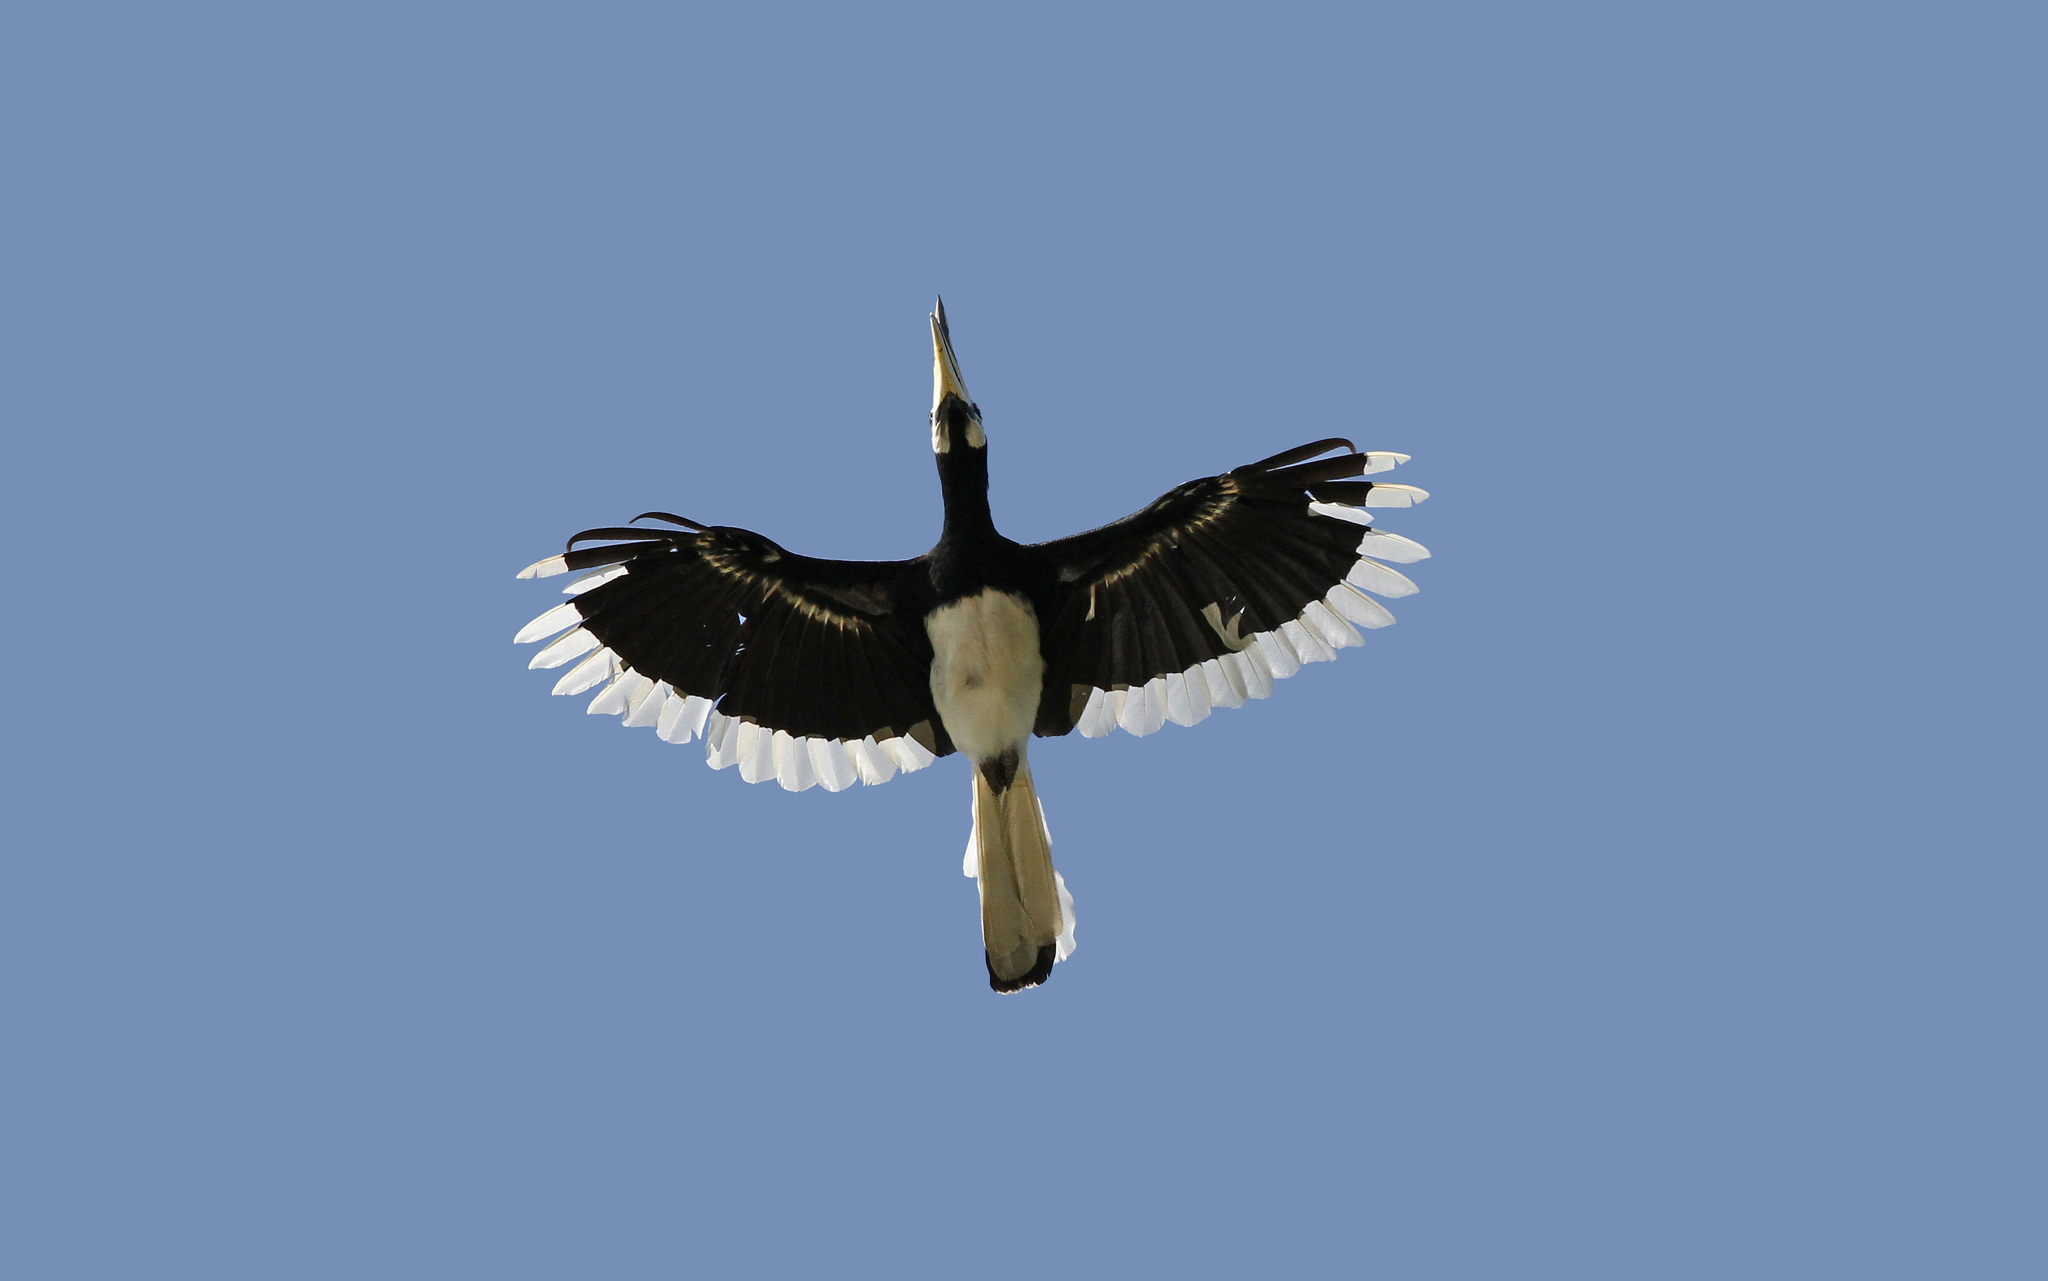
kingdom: Animalia
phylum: Chordata
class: Aves
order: Bucerotiformes
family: Bucerotidae
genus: Anthracoceros
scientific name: Anthracoceros albirostris
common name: Oriental pied-hornbill
